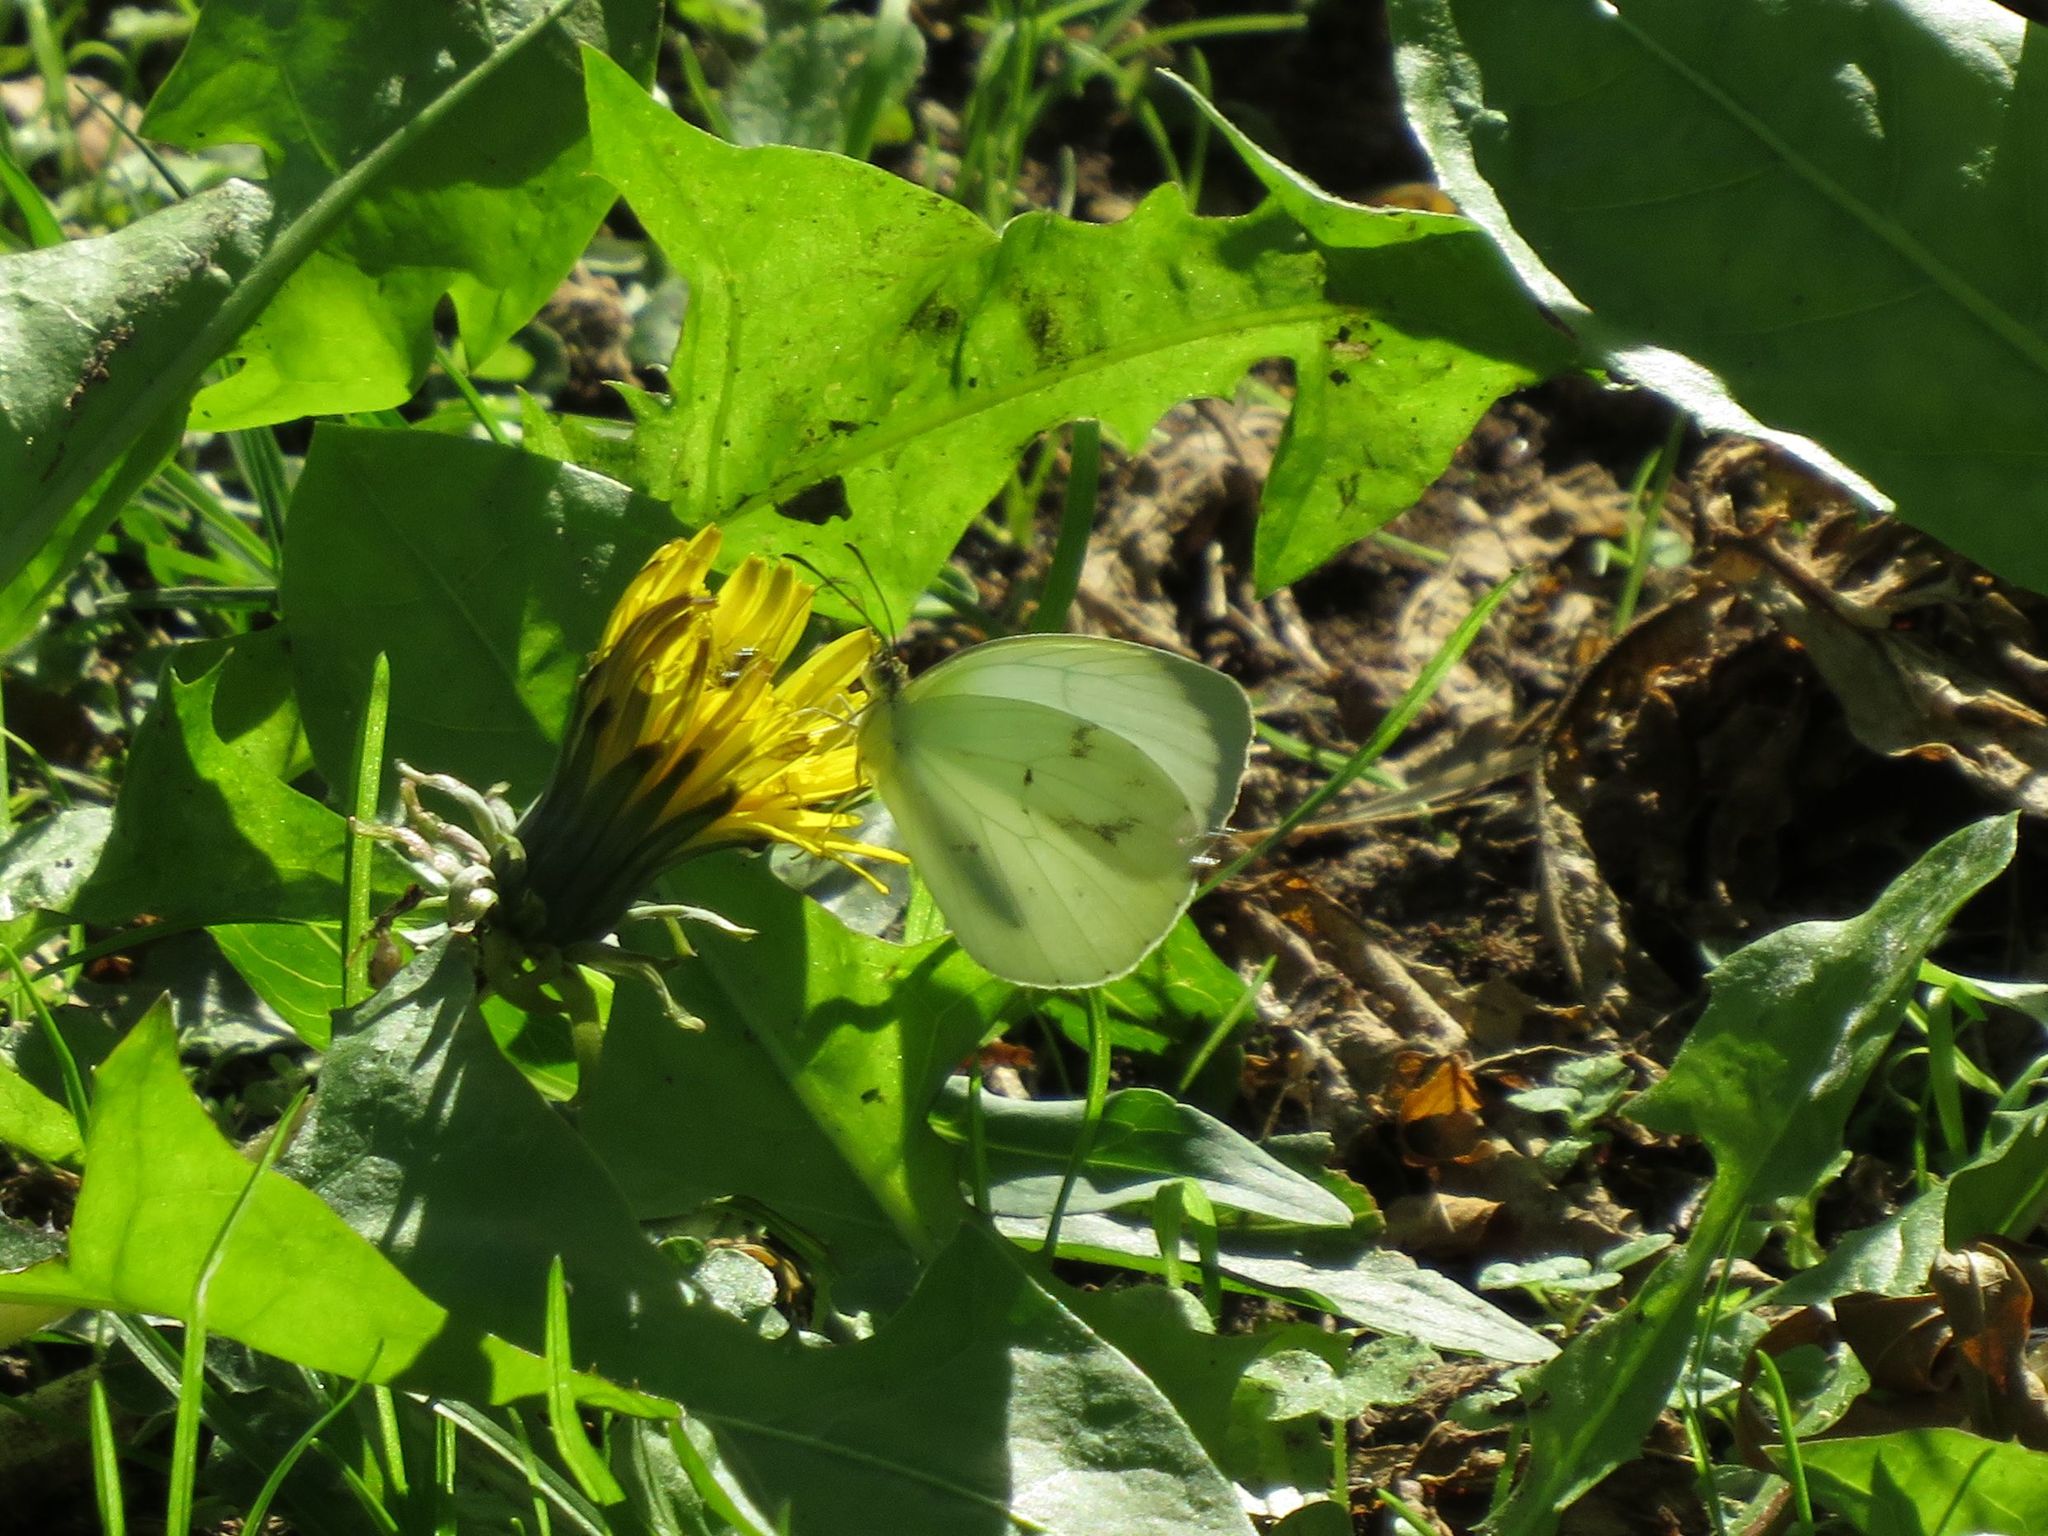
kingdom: Animalia
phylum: Arthropoda
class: Insecta
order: Lepidoptera
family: Pieridae
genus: Abaeis
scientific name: Abaeis albula
